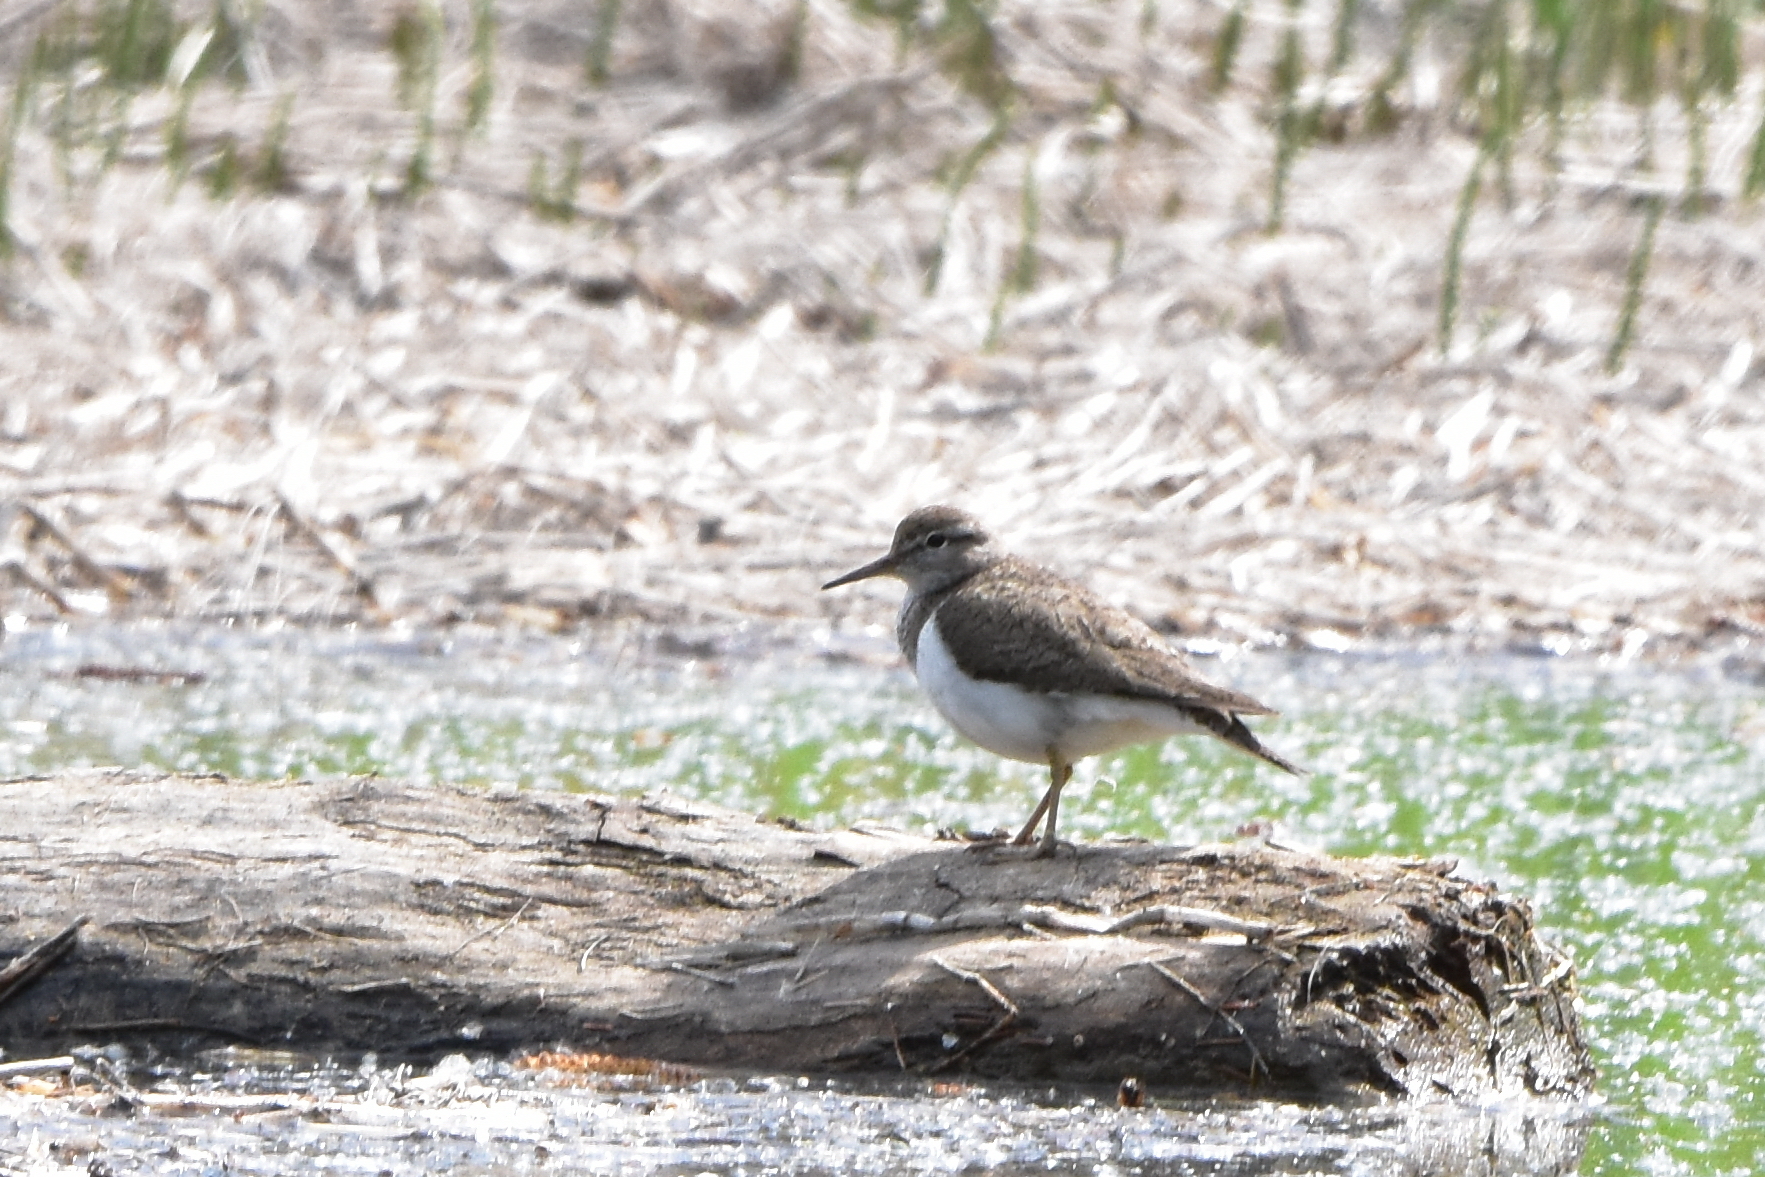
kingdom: Animalia
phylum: Chordata
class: Aves
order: Charadriiformes
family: Scolopacidae
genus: Actitis
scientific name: Actitis hypoleucos
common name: Common sandpiper
